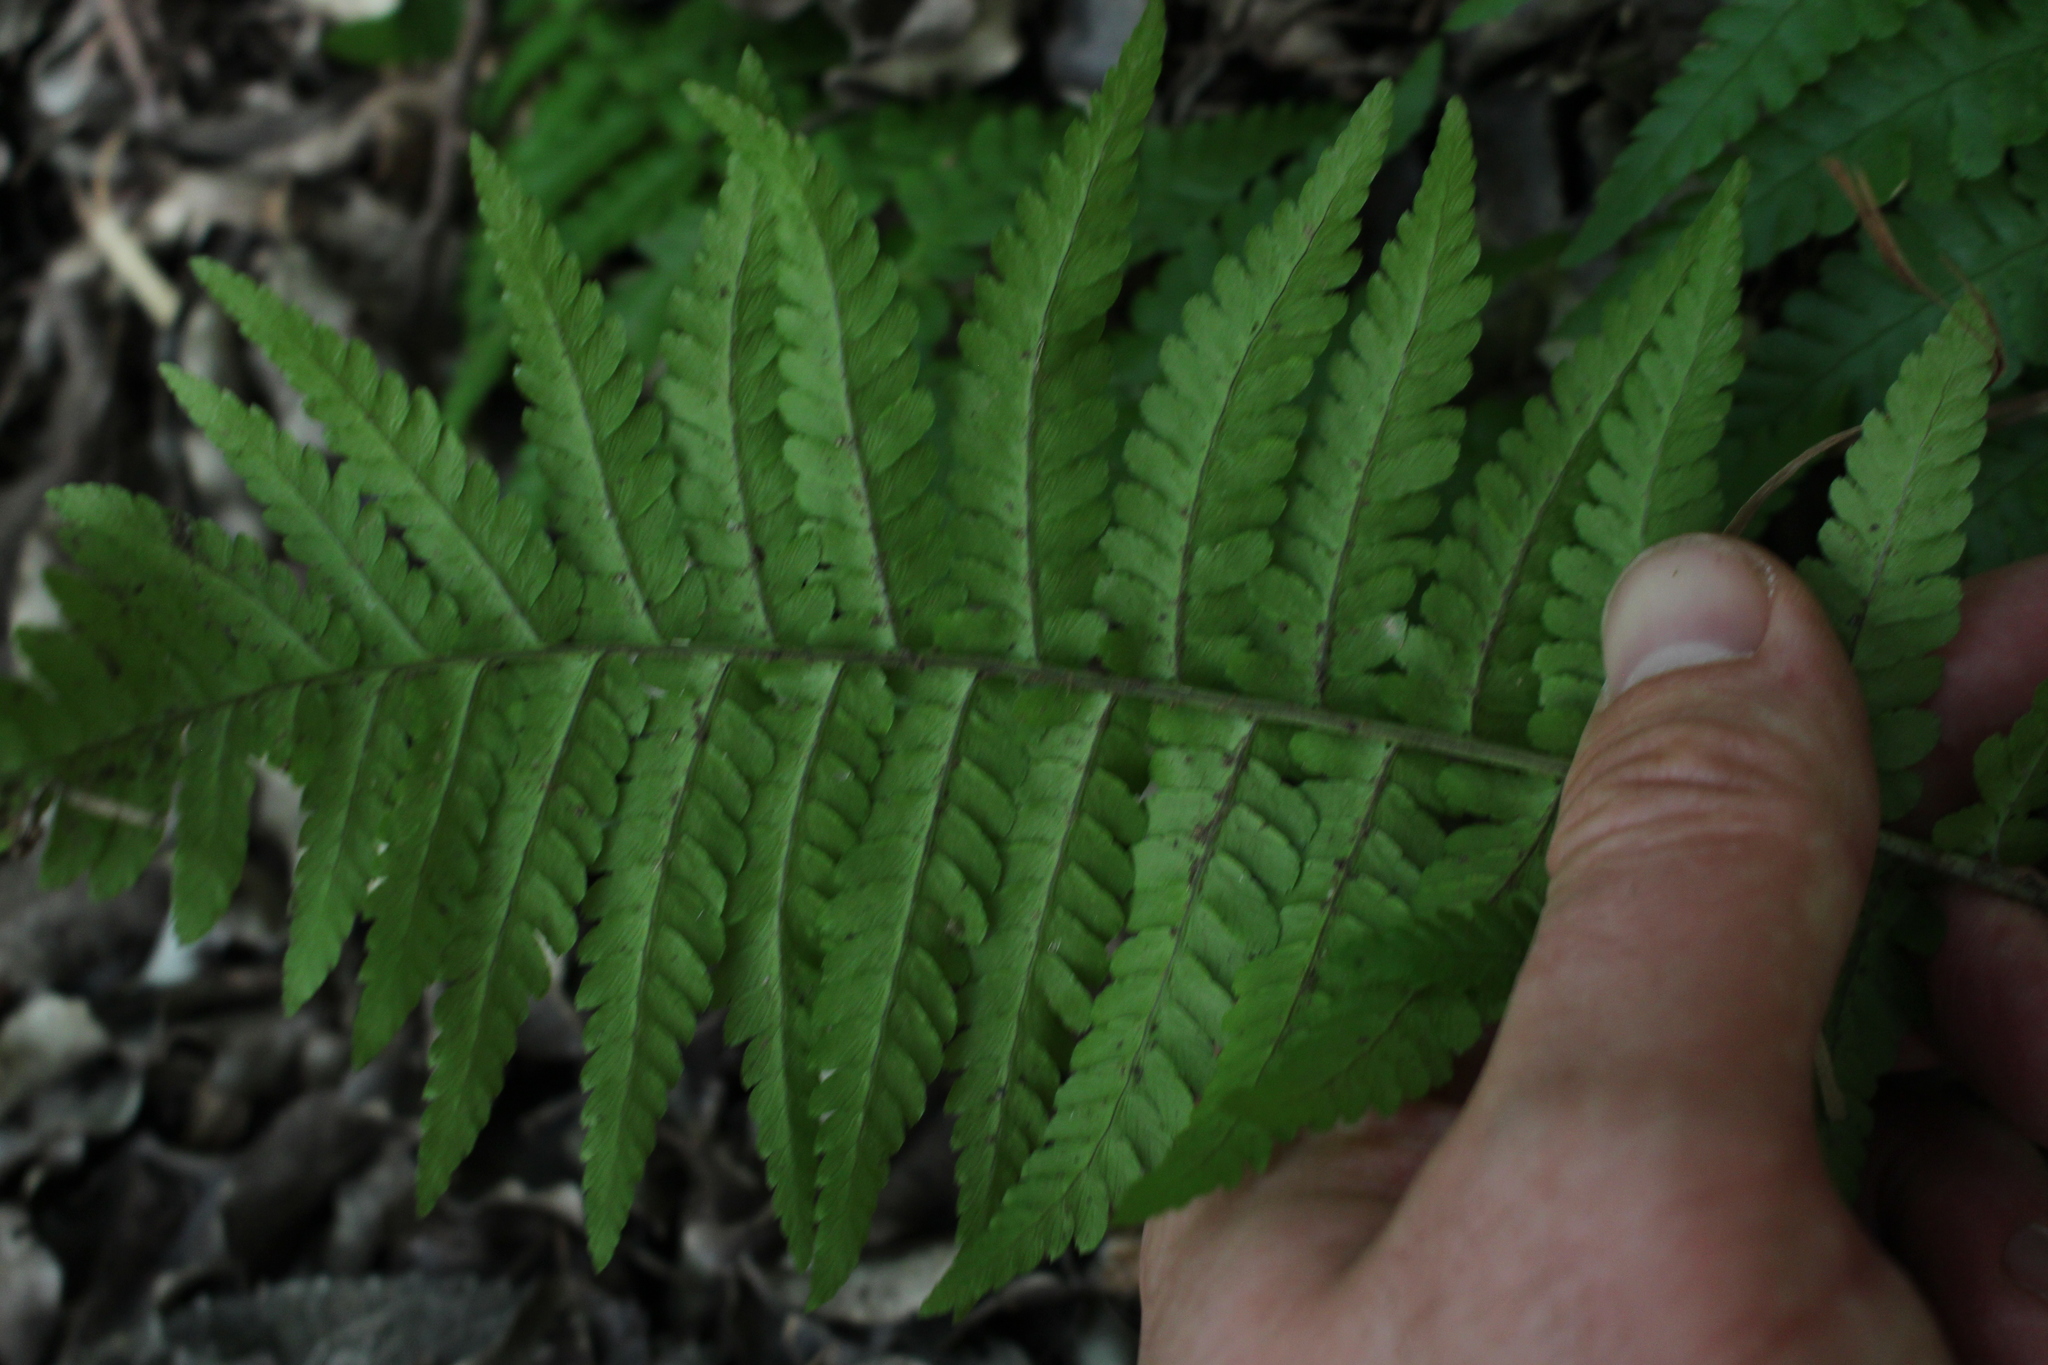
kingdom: Plantae
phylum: Tracheophyta
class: Polypodiopsida
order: Polypodiales
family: Dryopteridaceae
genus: Dryopteris
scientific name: Dryopteris filix-mas
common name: Male fern
